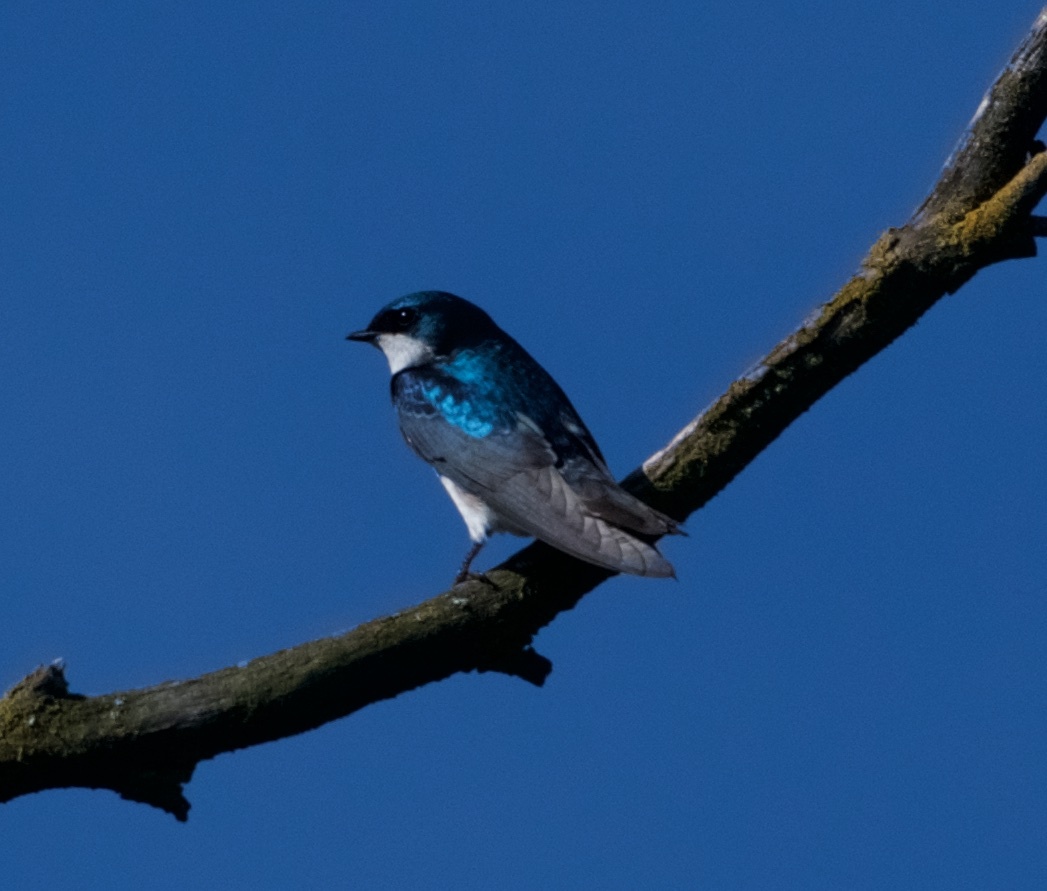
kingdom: Animalia
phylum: Chordata
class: Aves
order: Passeriformes
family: Hirundinidae
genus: Tachycineta
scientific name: Tachycineta bicolor
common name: Tree swallow
